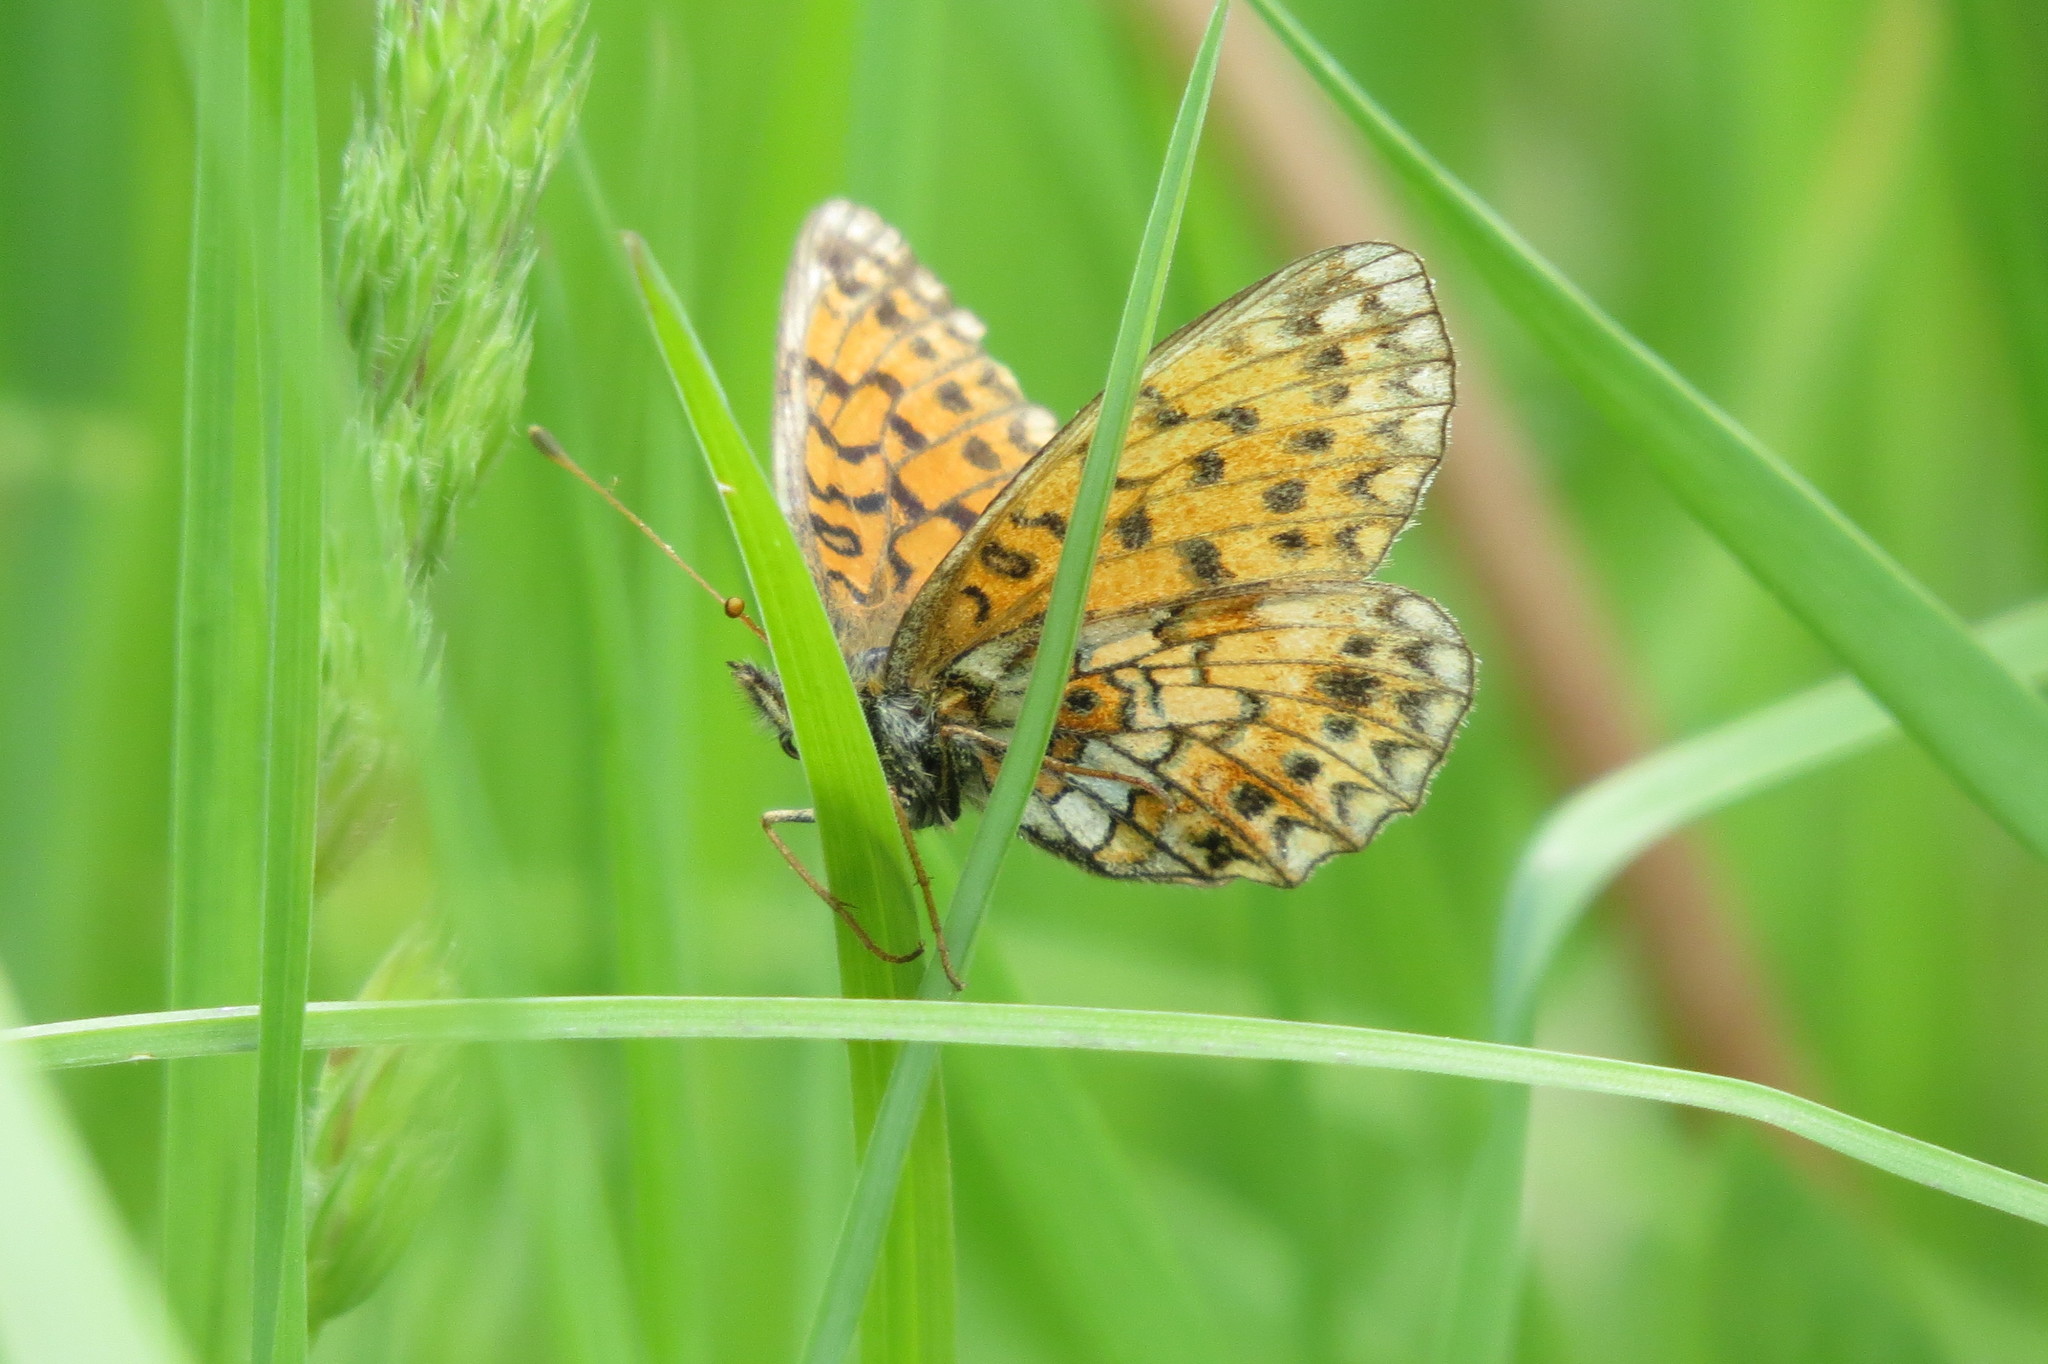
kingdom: Animalia
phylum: Arthropoda
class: Insecta
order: Lepidoptera
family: Nymphalidae
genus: Boloria
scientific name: Boloria selene
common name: Small pearl-bordered fritillary
